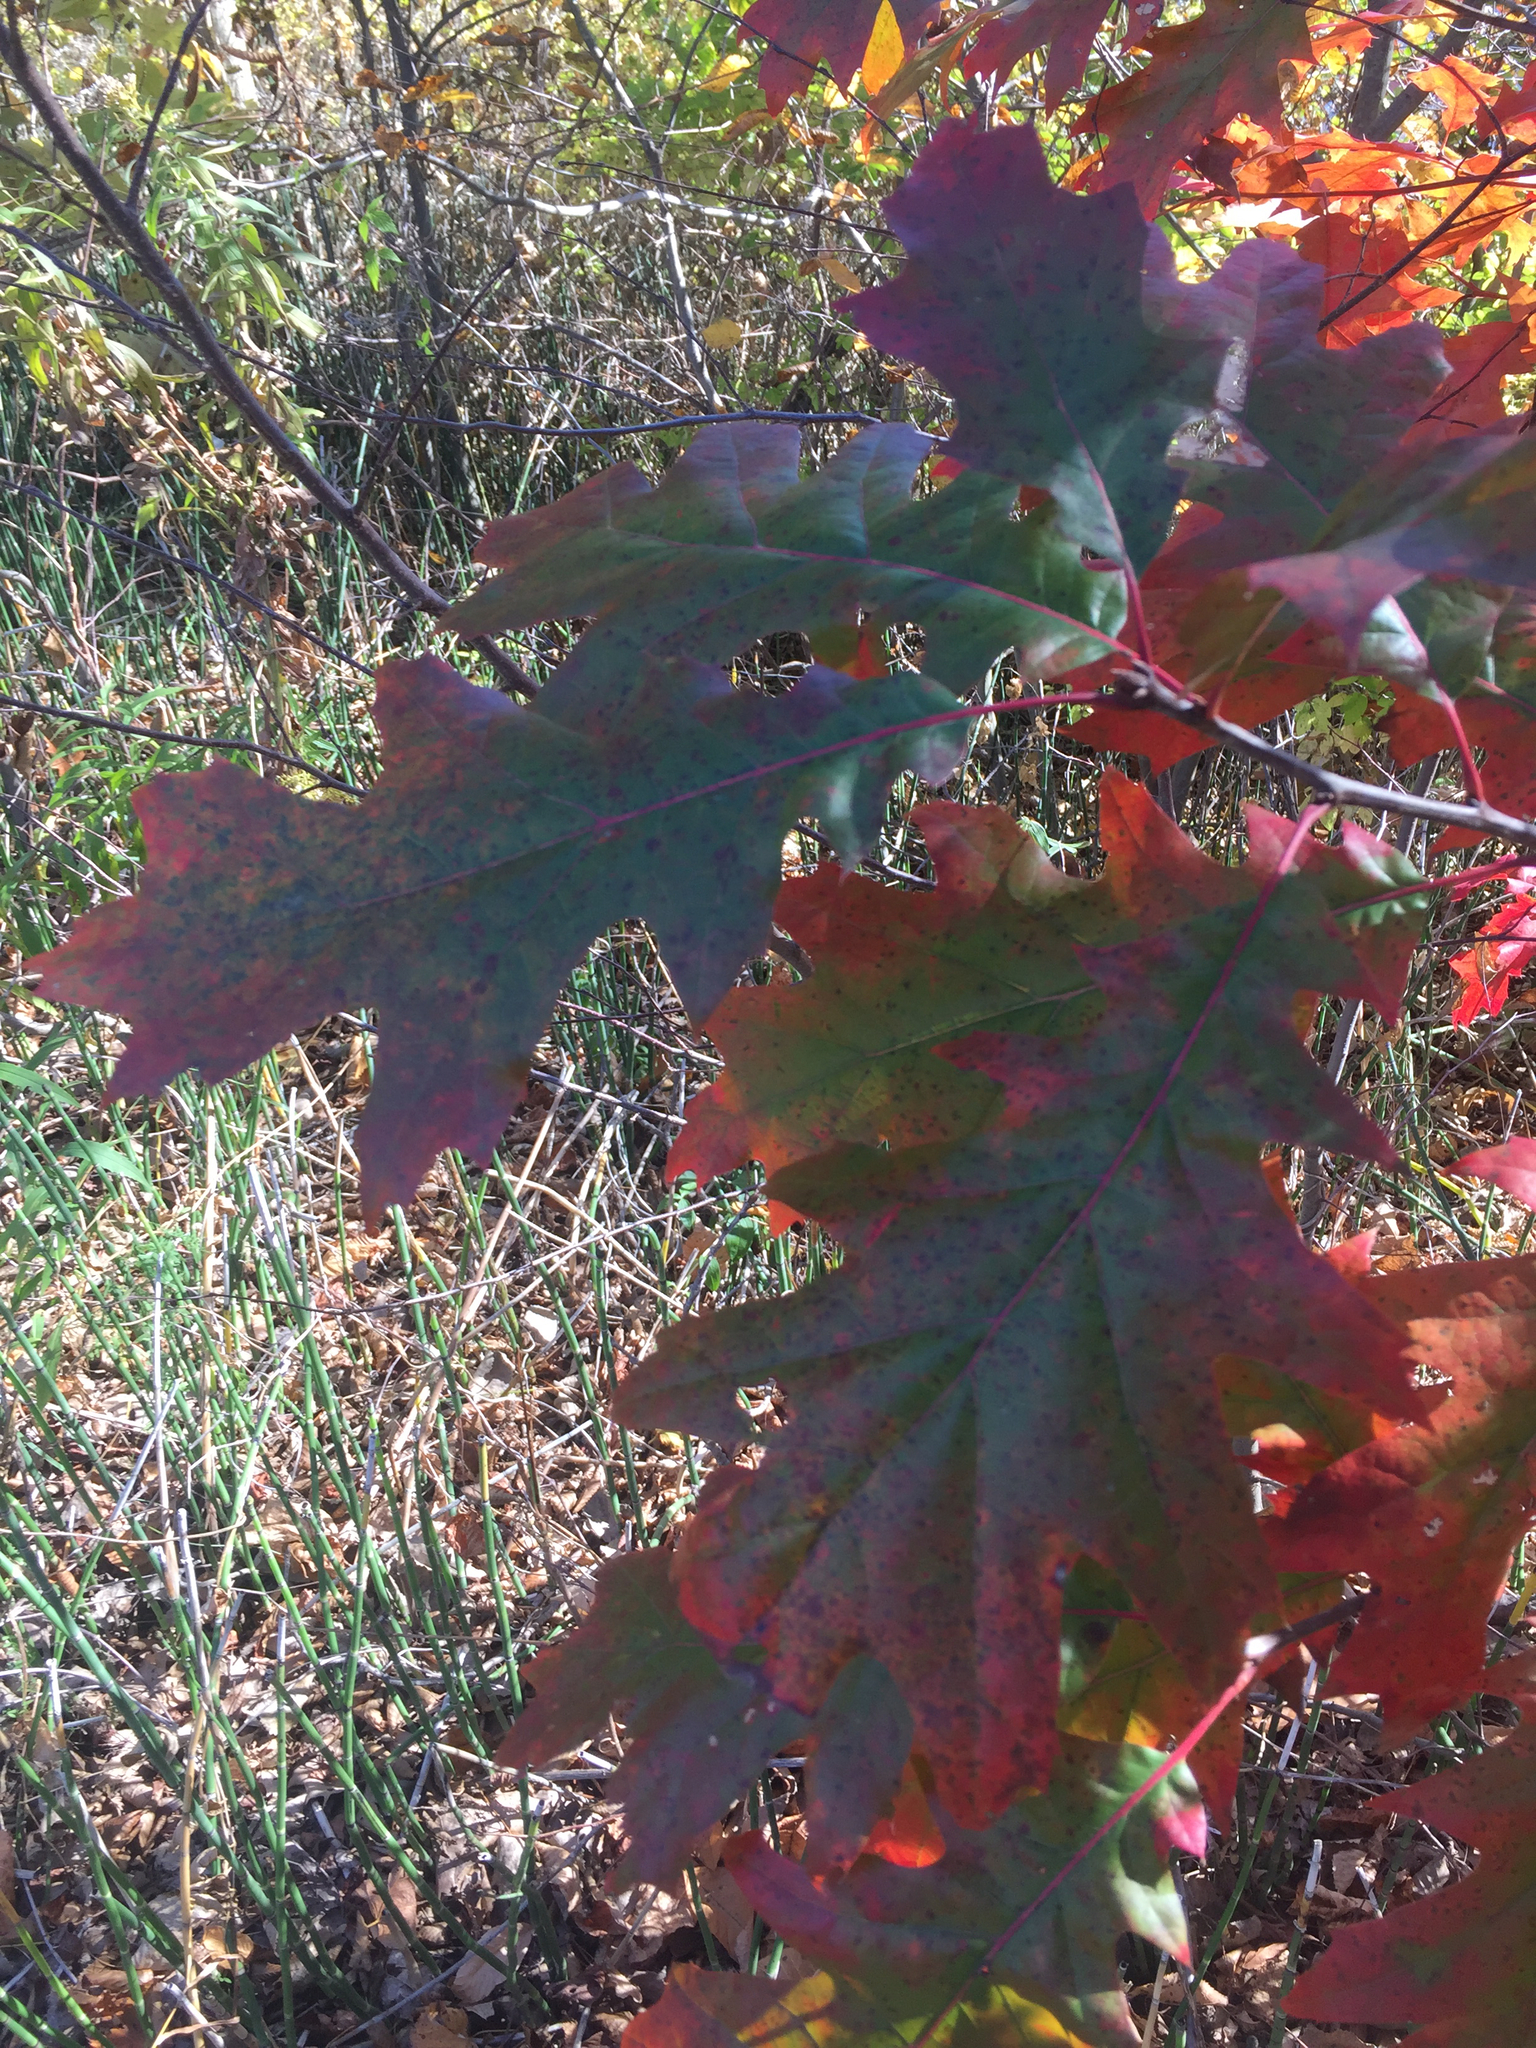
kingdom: Plantae
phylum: Tracheophyta
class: Magnoliopsida
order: Fagales
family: Fagaceae
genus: Quercus
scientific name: Quercus rubra
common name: Red oak
